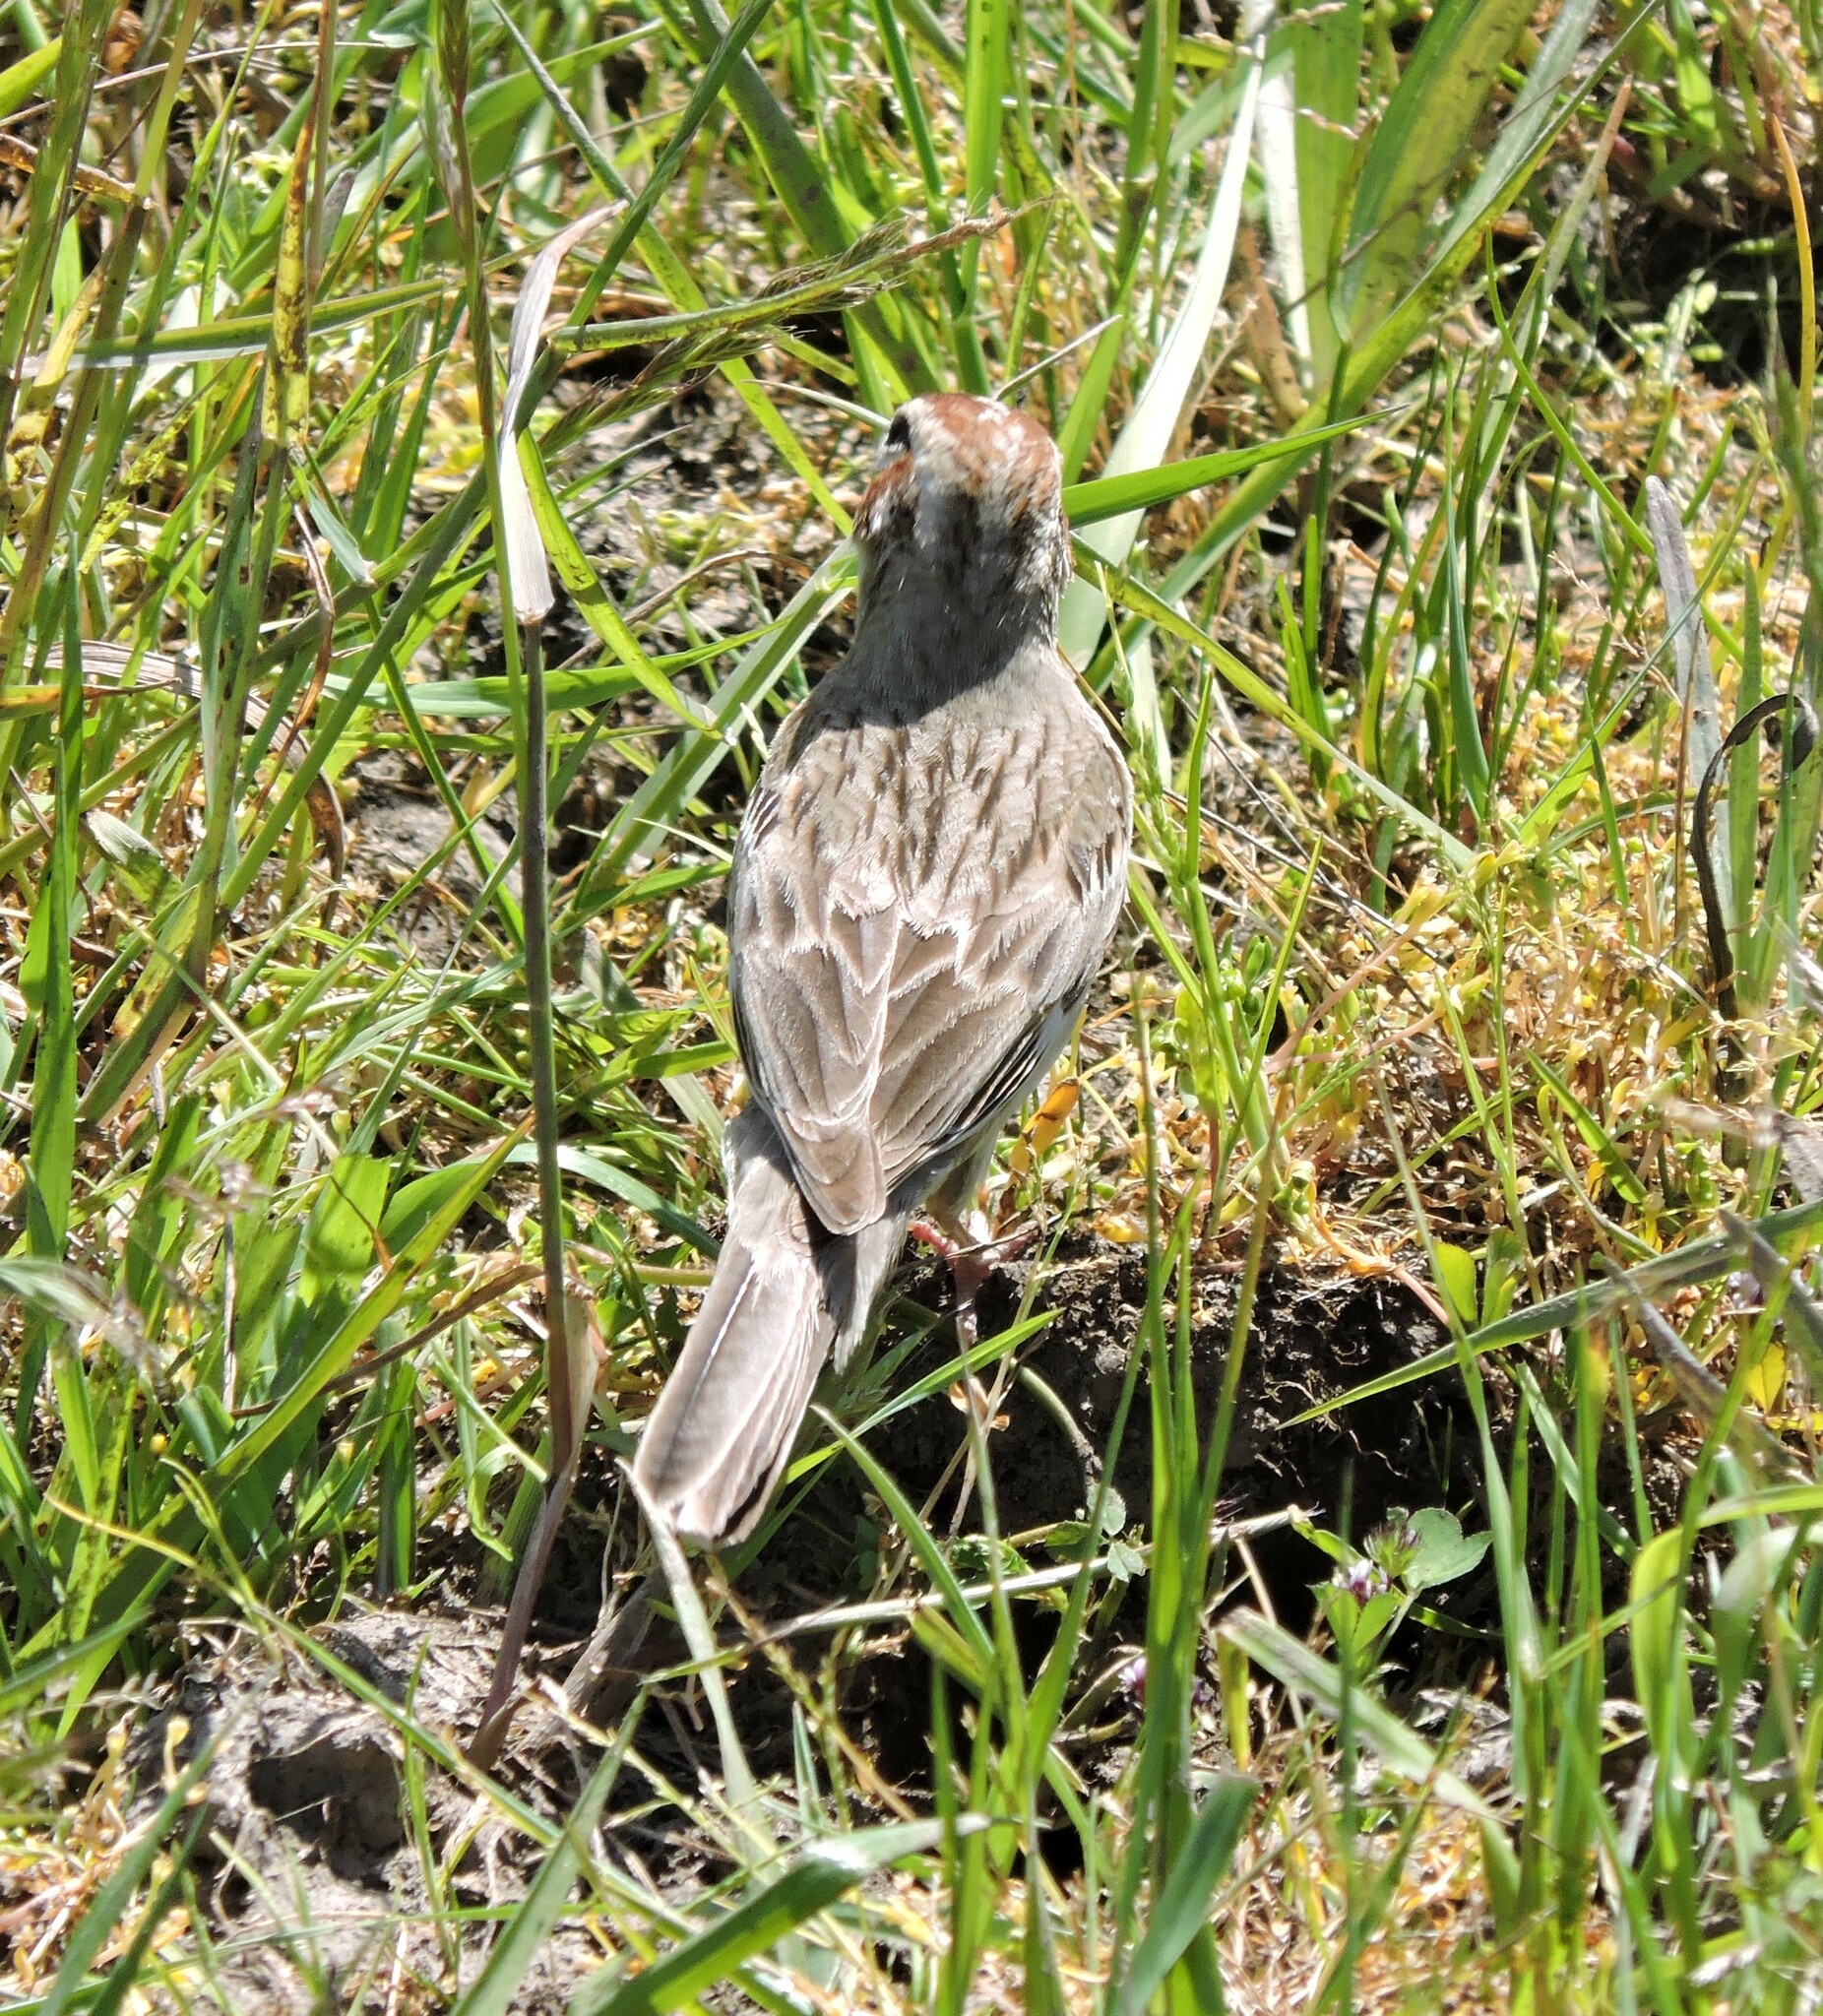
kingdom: Animalia
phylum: Chordata
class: Aves
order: Passeriformes
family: Passerellidae
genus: Chondestes
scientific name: Chondestes grammacus
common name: Lark sparrow
